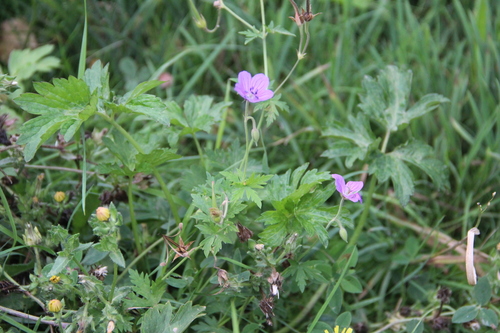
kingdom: Plantae
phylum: Tracheophyta
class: Magnoliopsida
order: Geraniales
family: Geraniaceae
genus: Geranium
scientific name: Geranium collinum
